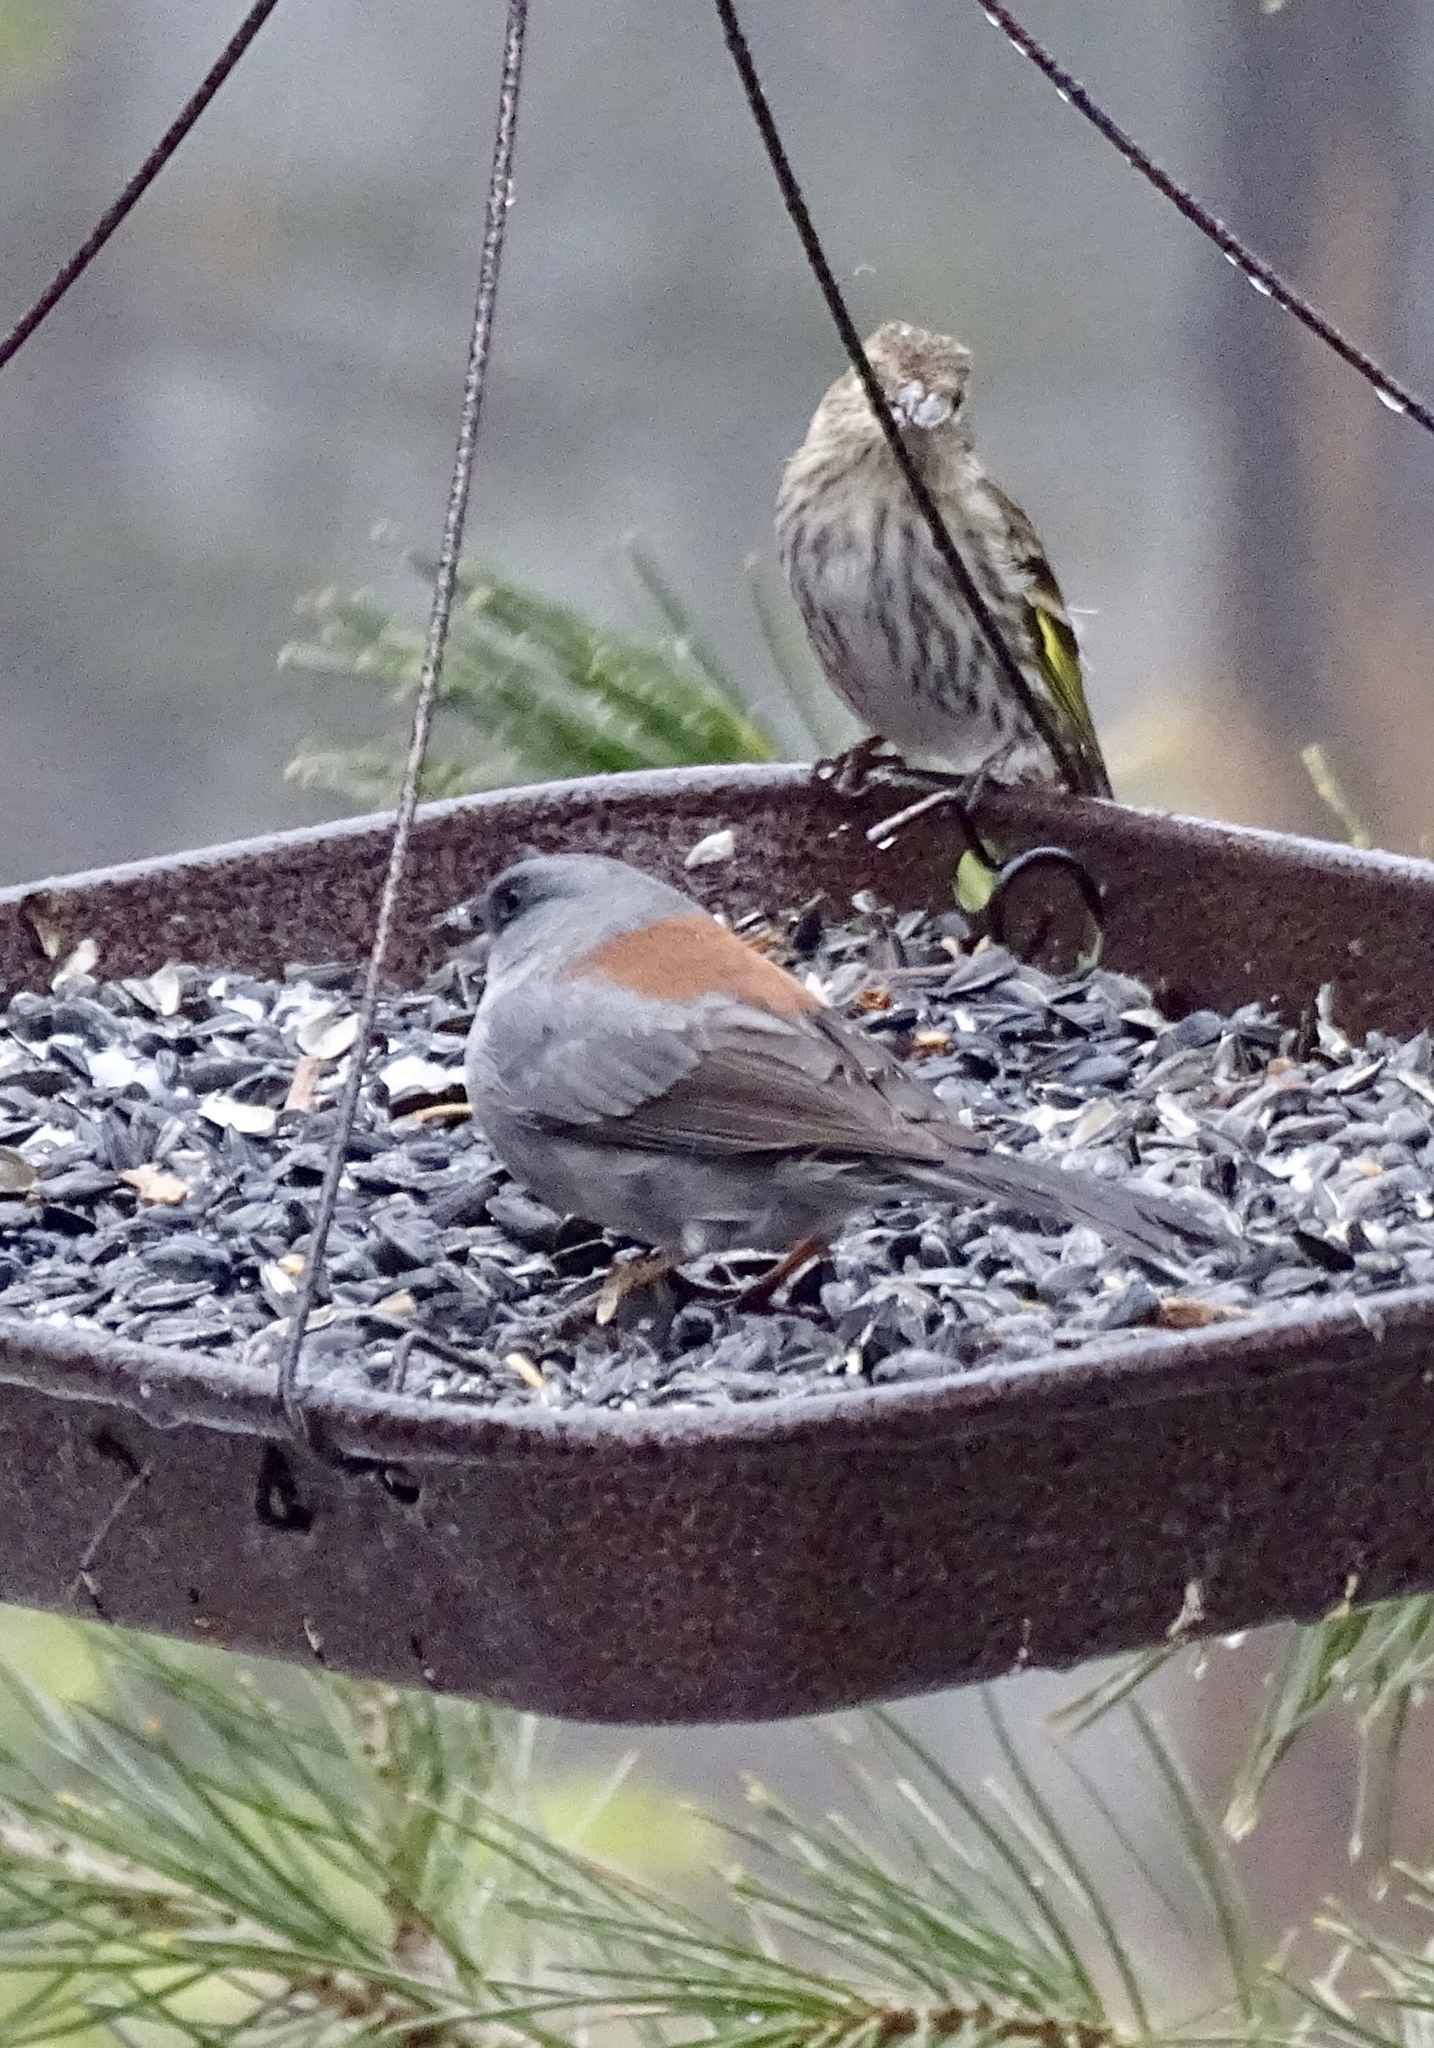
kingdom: Animalia
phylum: Chordata
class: Aves
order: Passeriformes
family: Passerellidae
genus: Junco
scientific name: Junco hyemalis
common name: Dark-eyed junco
